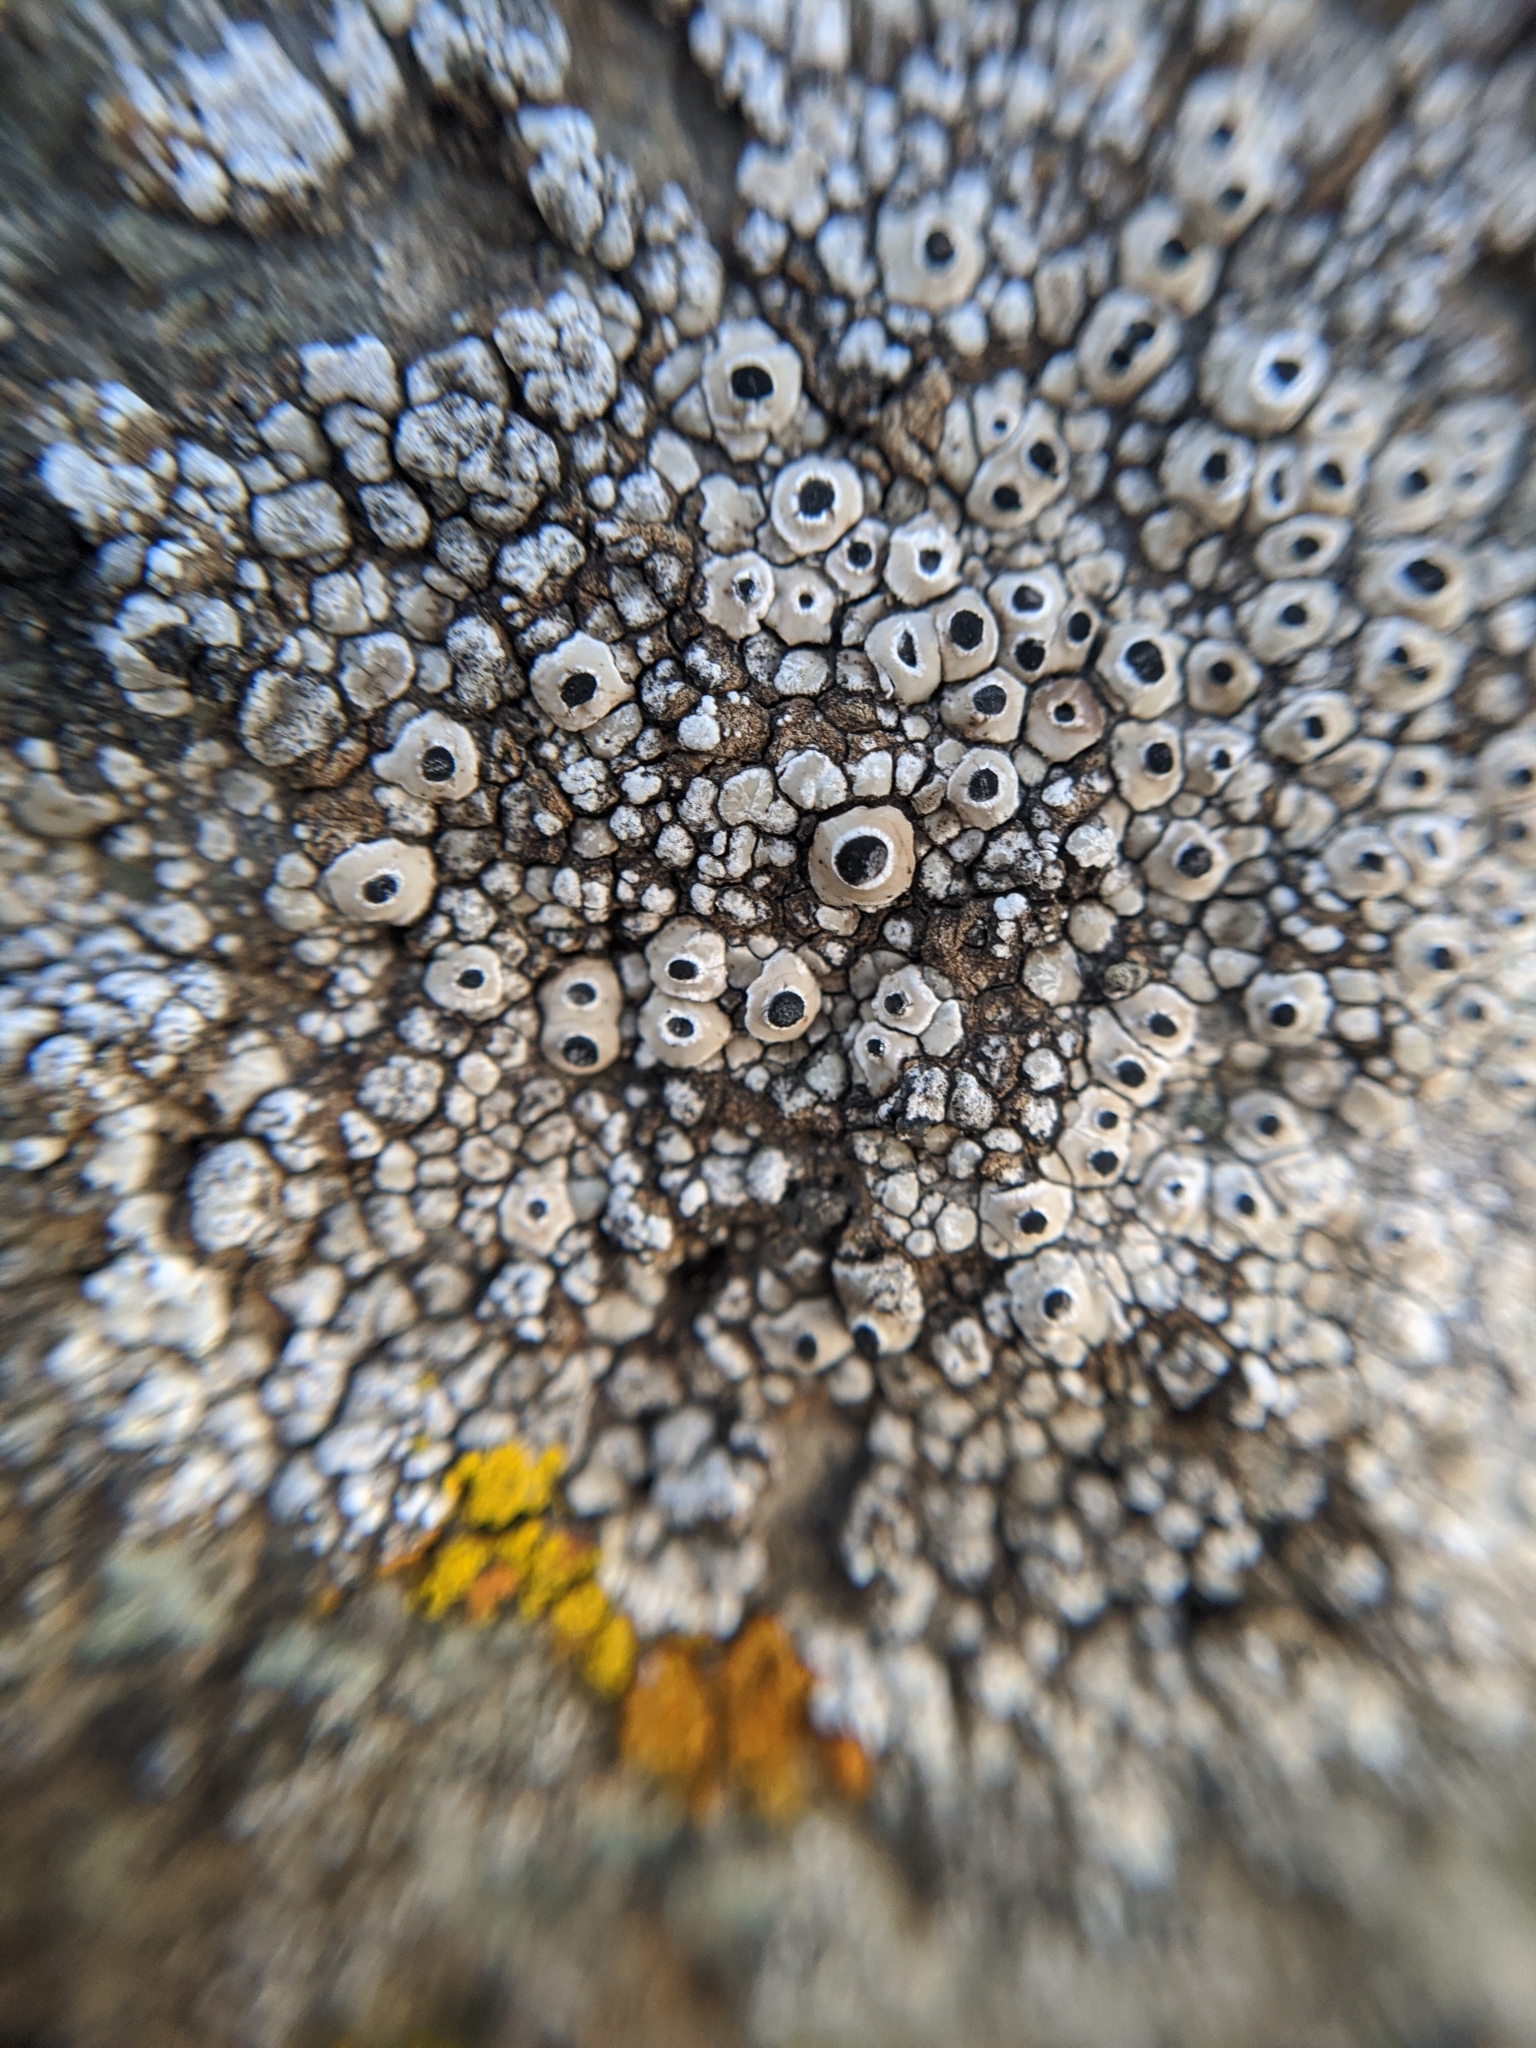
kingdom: Fungi
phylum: Ascomycota
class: Lecanoromycetes
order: Caliciales
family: Caliciaceae
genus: Thelomma
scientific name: Thelomma mammosum
